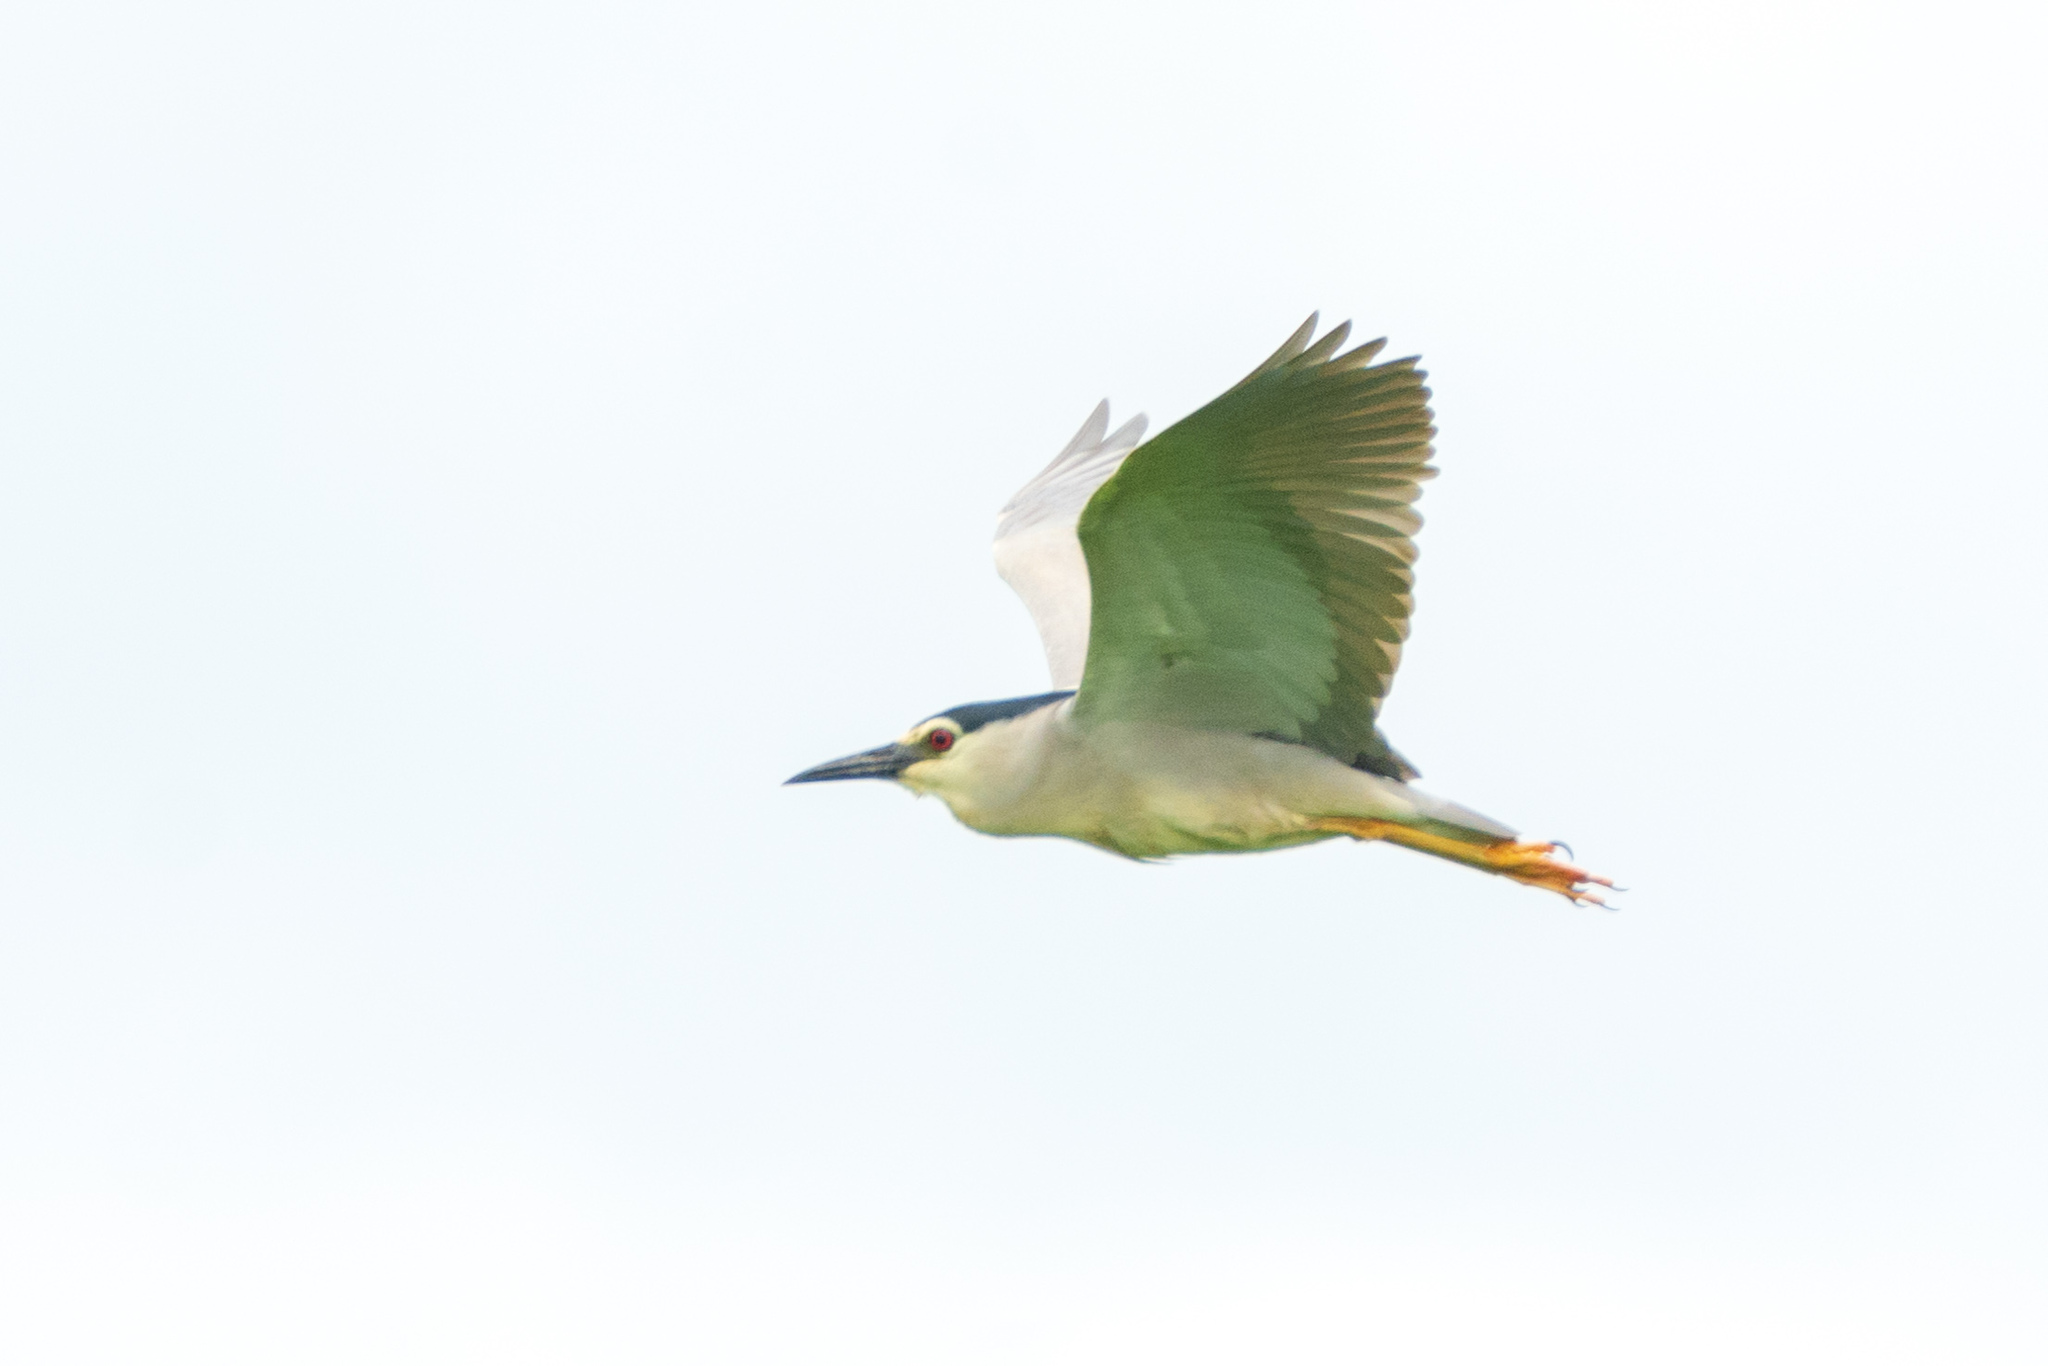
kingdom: Animalia
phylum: Chordata
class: Aves
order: Pelecaniformes
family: Ardeidae
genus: Nycticorax
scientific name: Nycticorax nycticorax
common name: Black-crowned night heron
